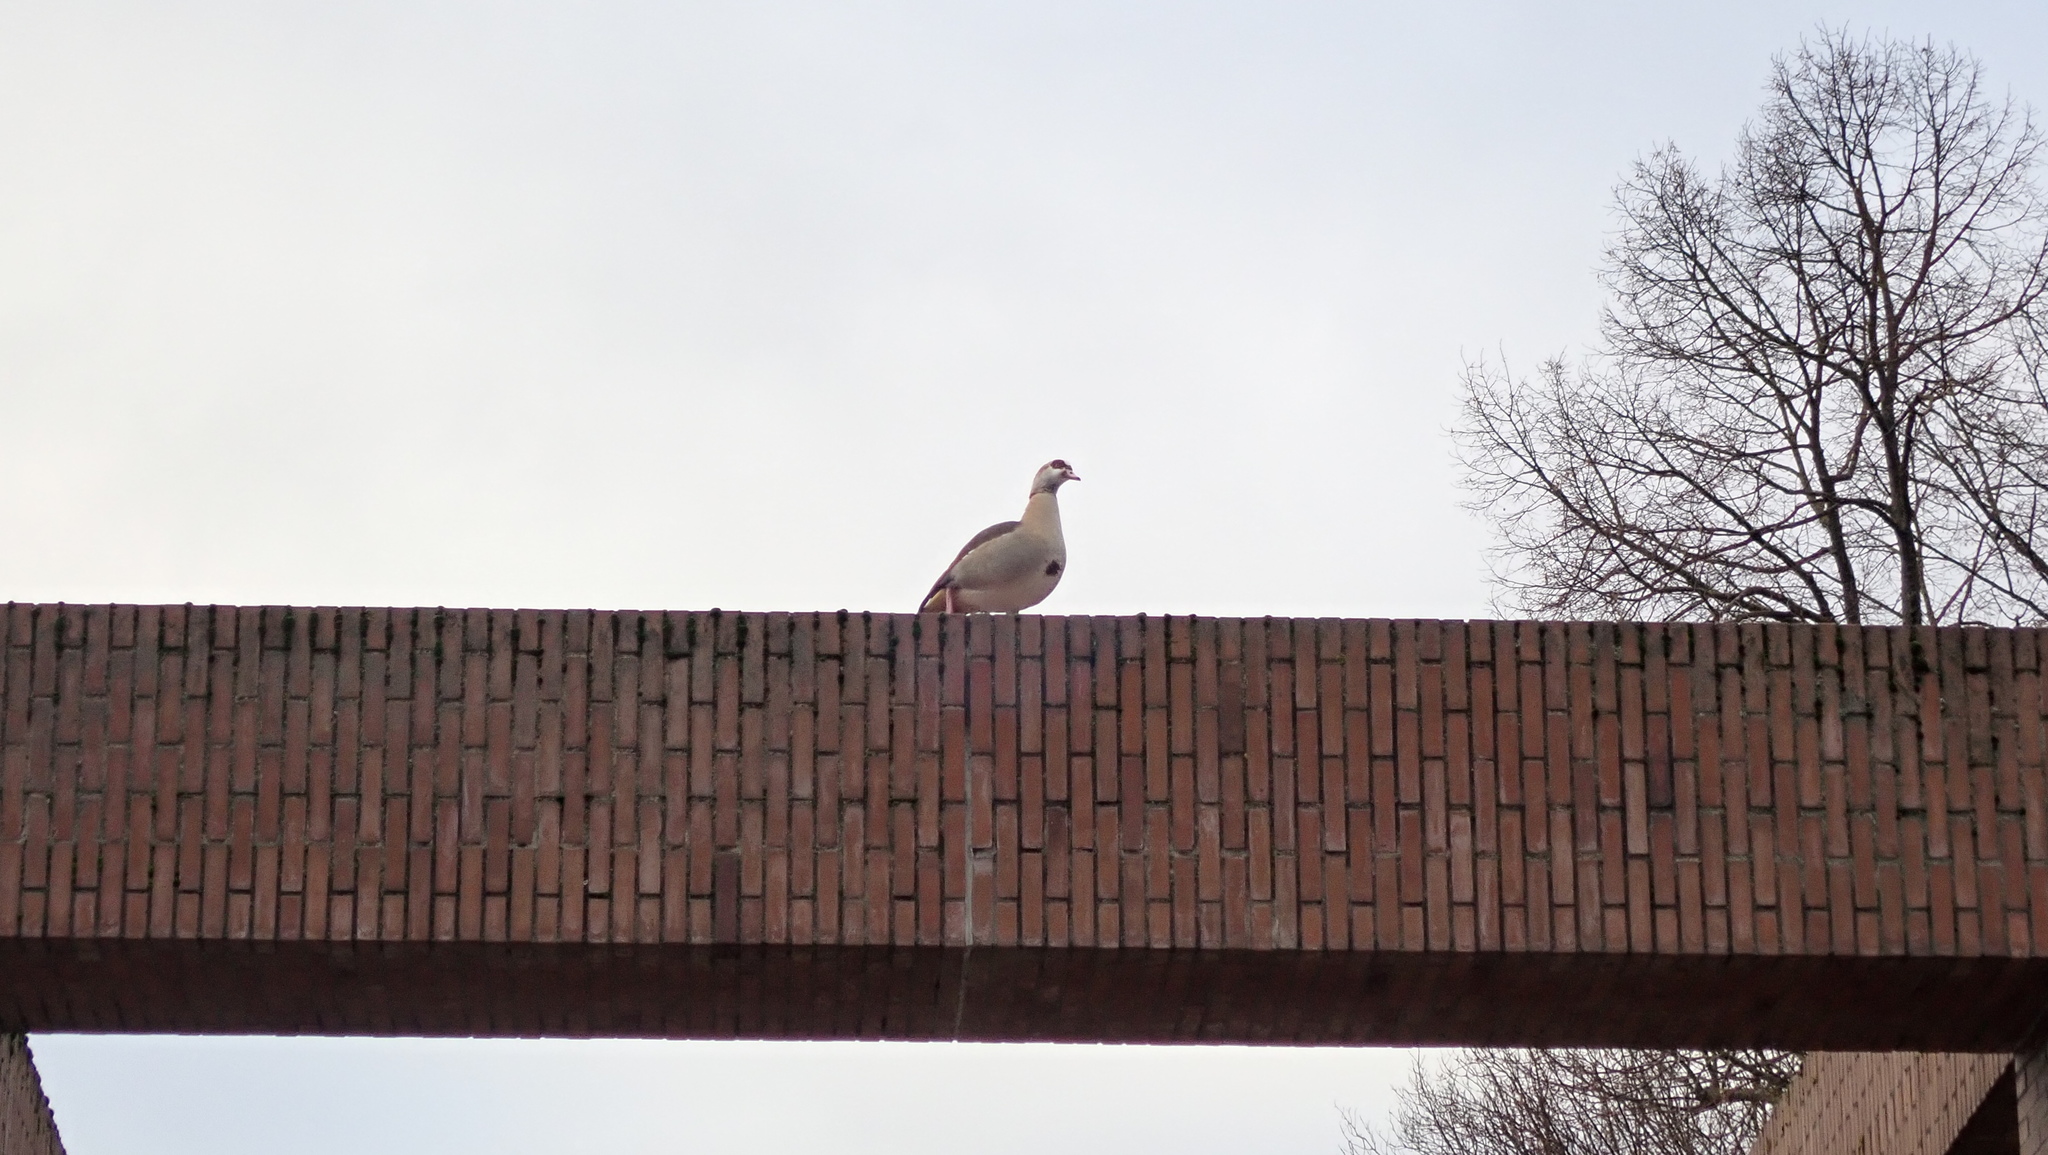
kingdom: Animalia
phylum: Chordata
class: Aves
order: Anseriformes
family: Anatidae
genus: Alopochen
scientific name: Alopochen aegyptiaca
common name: Egyptian goose
